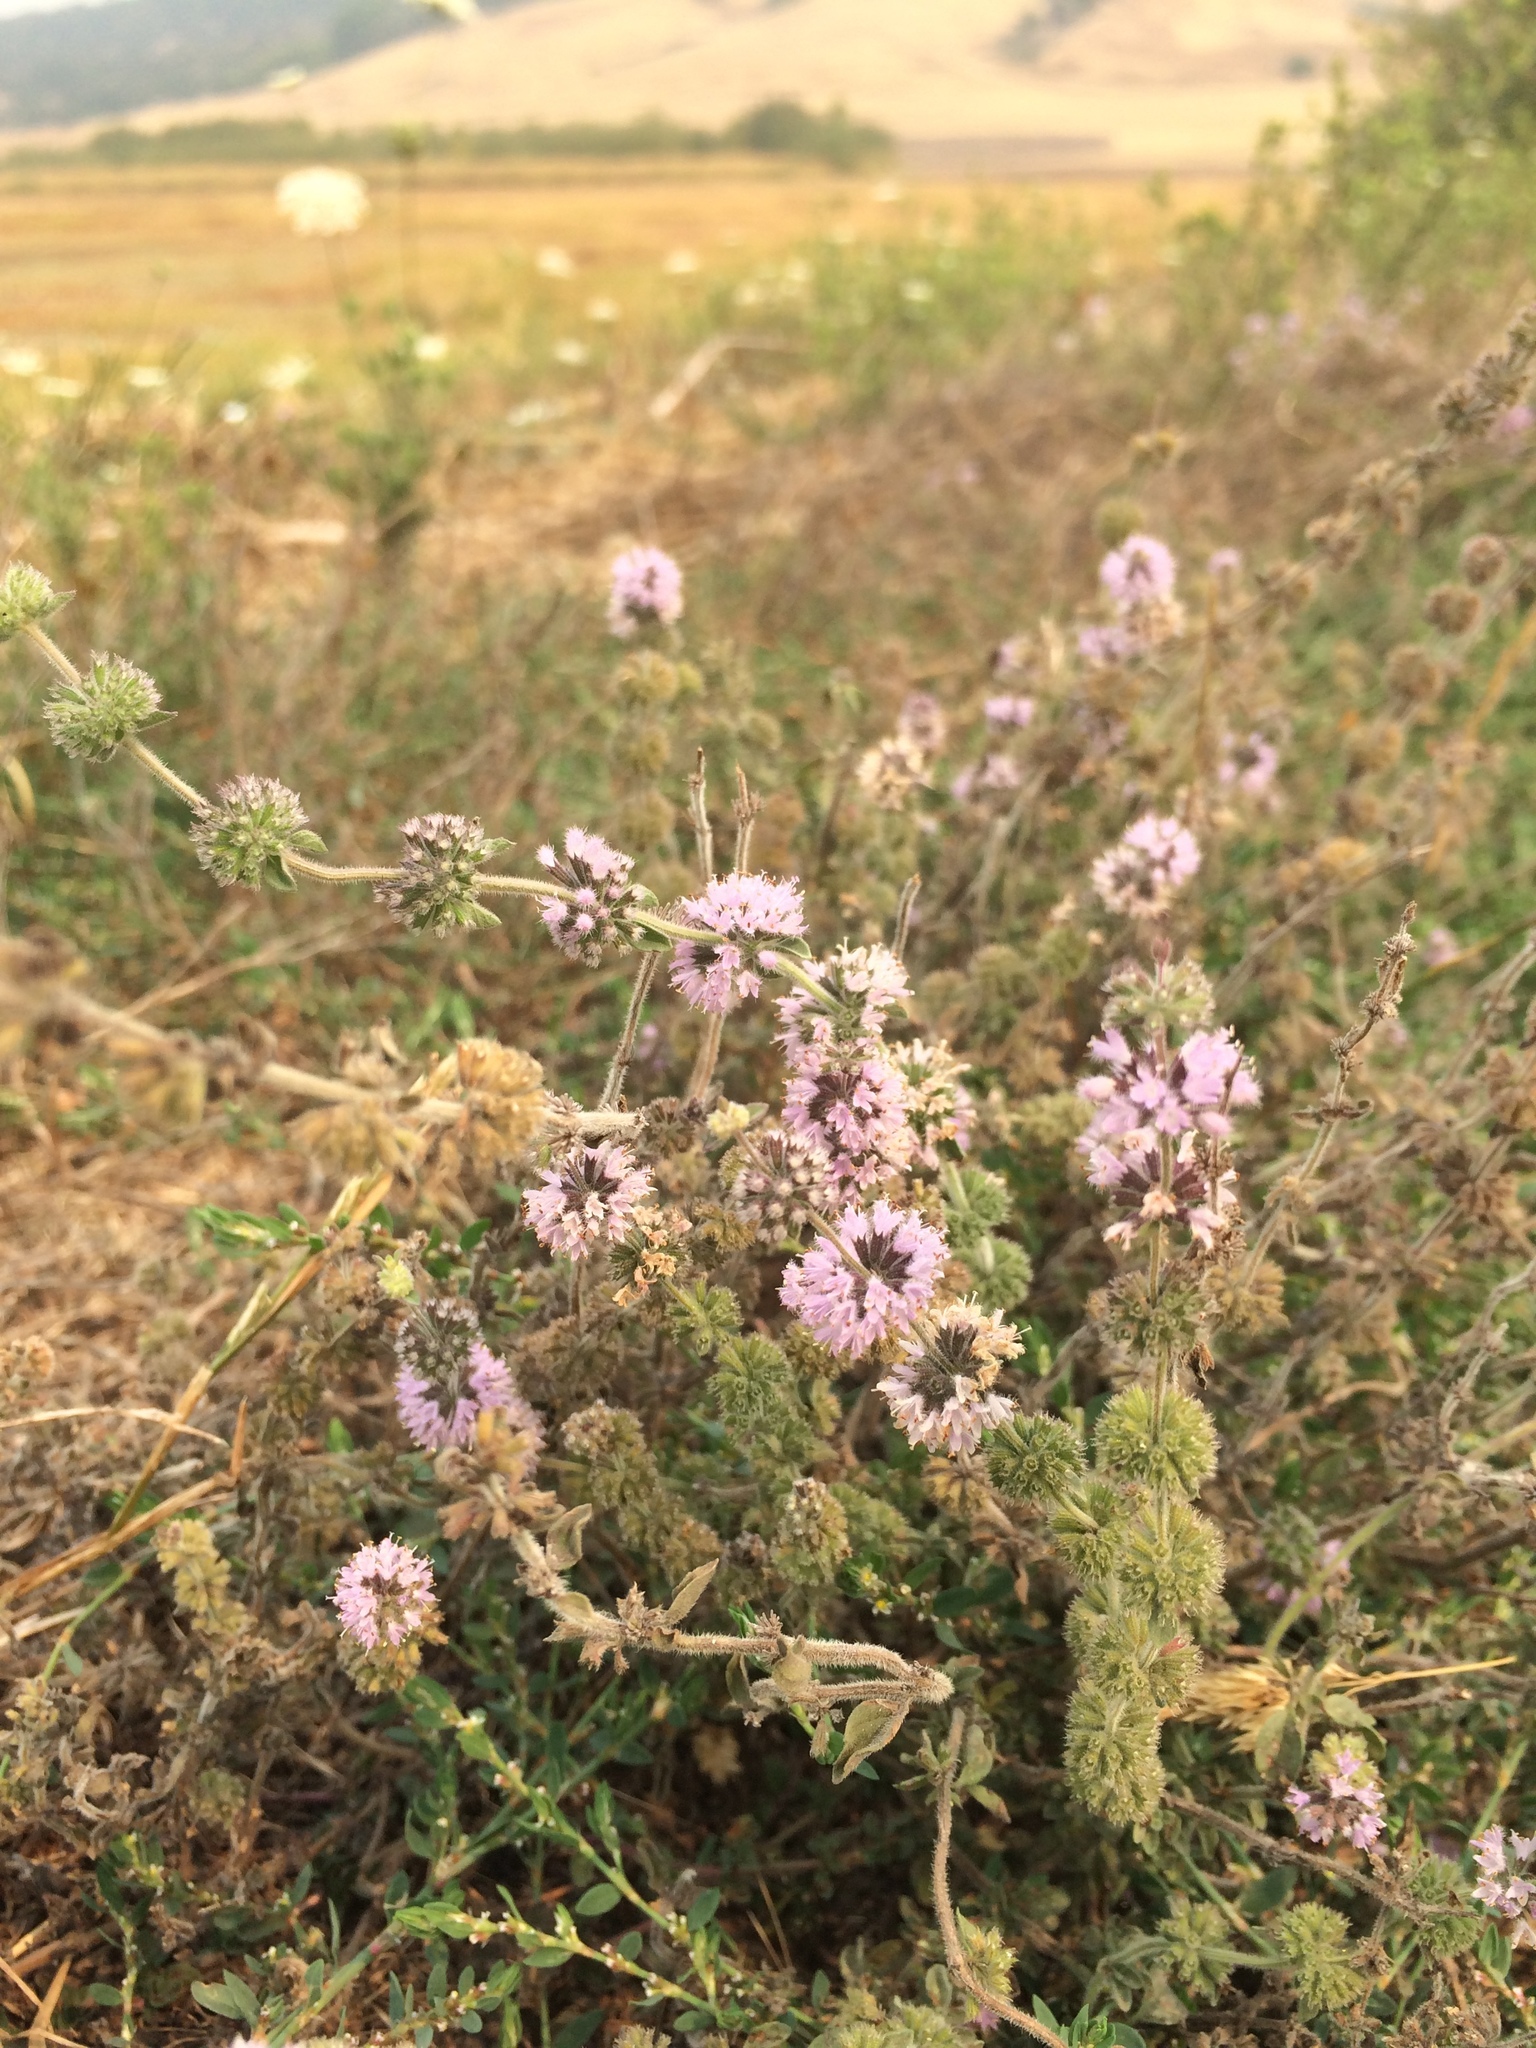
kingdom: Plantae
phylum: Tracheophyta
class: Magnoliopsida
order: Lamiales
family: Lamiaceae
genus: Mentha
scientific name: Mentha pulegium
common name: Pennyroyal
